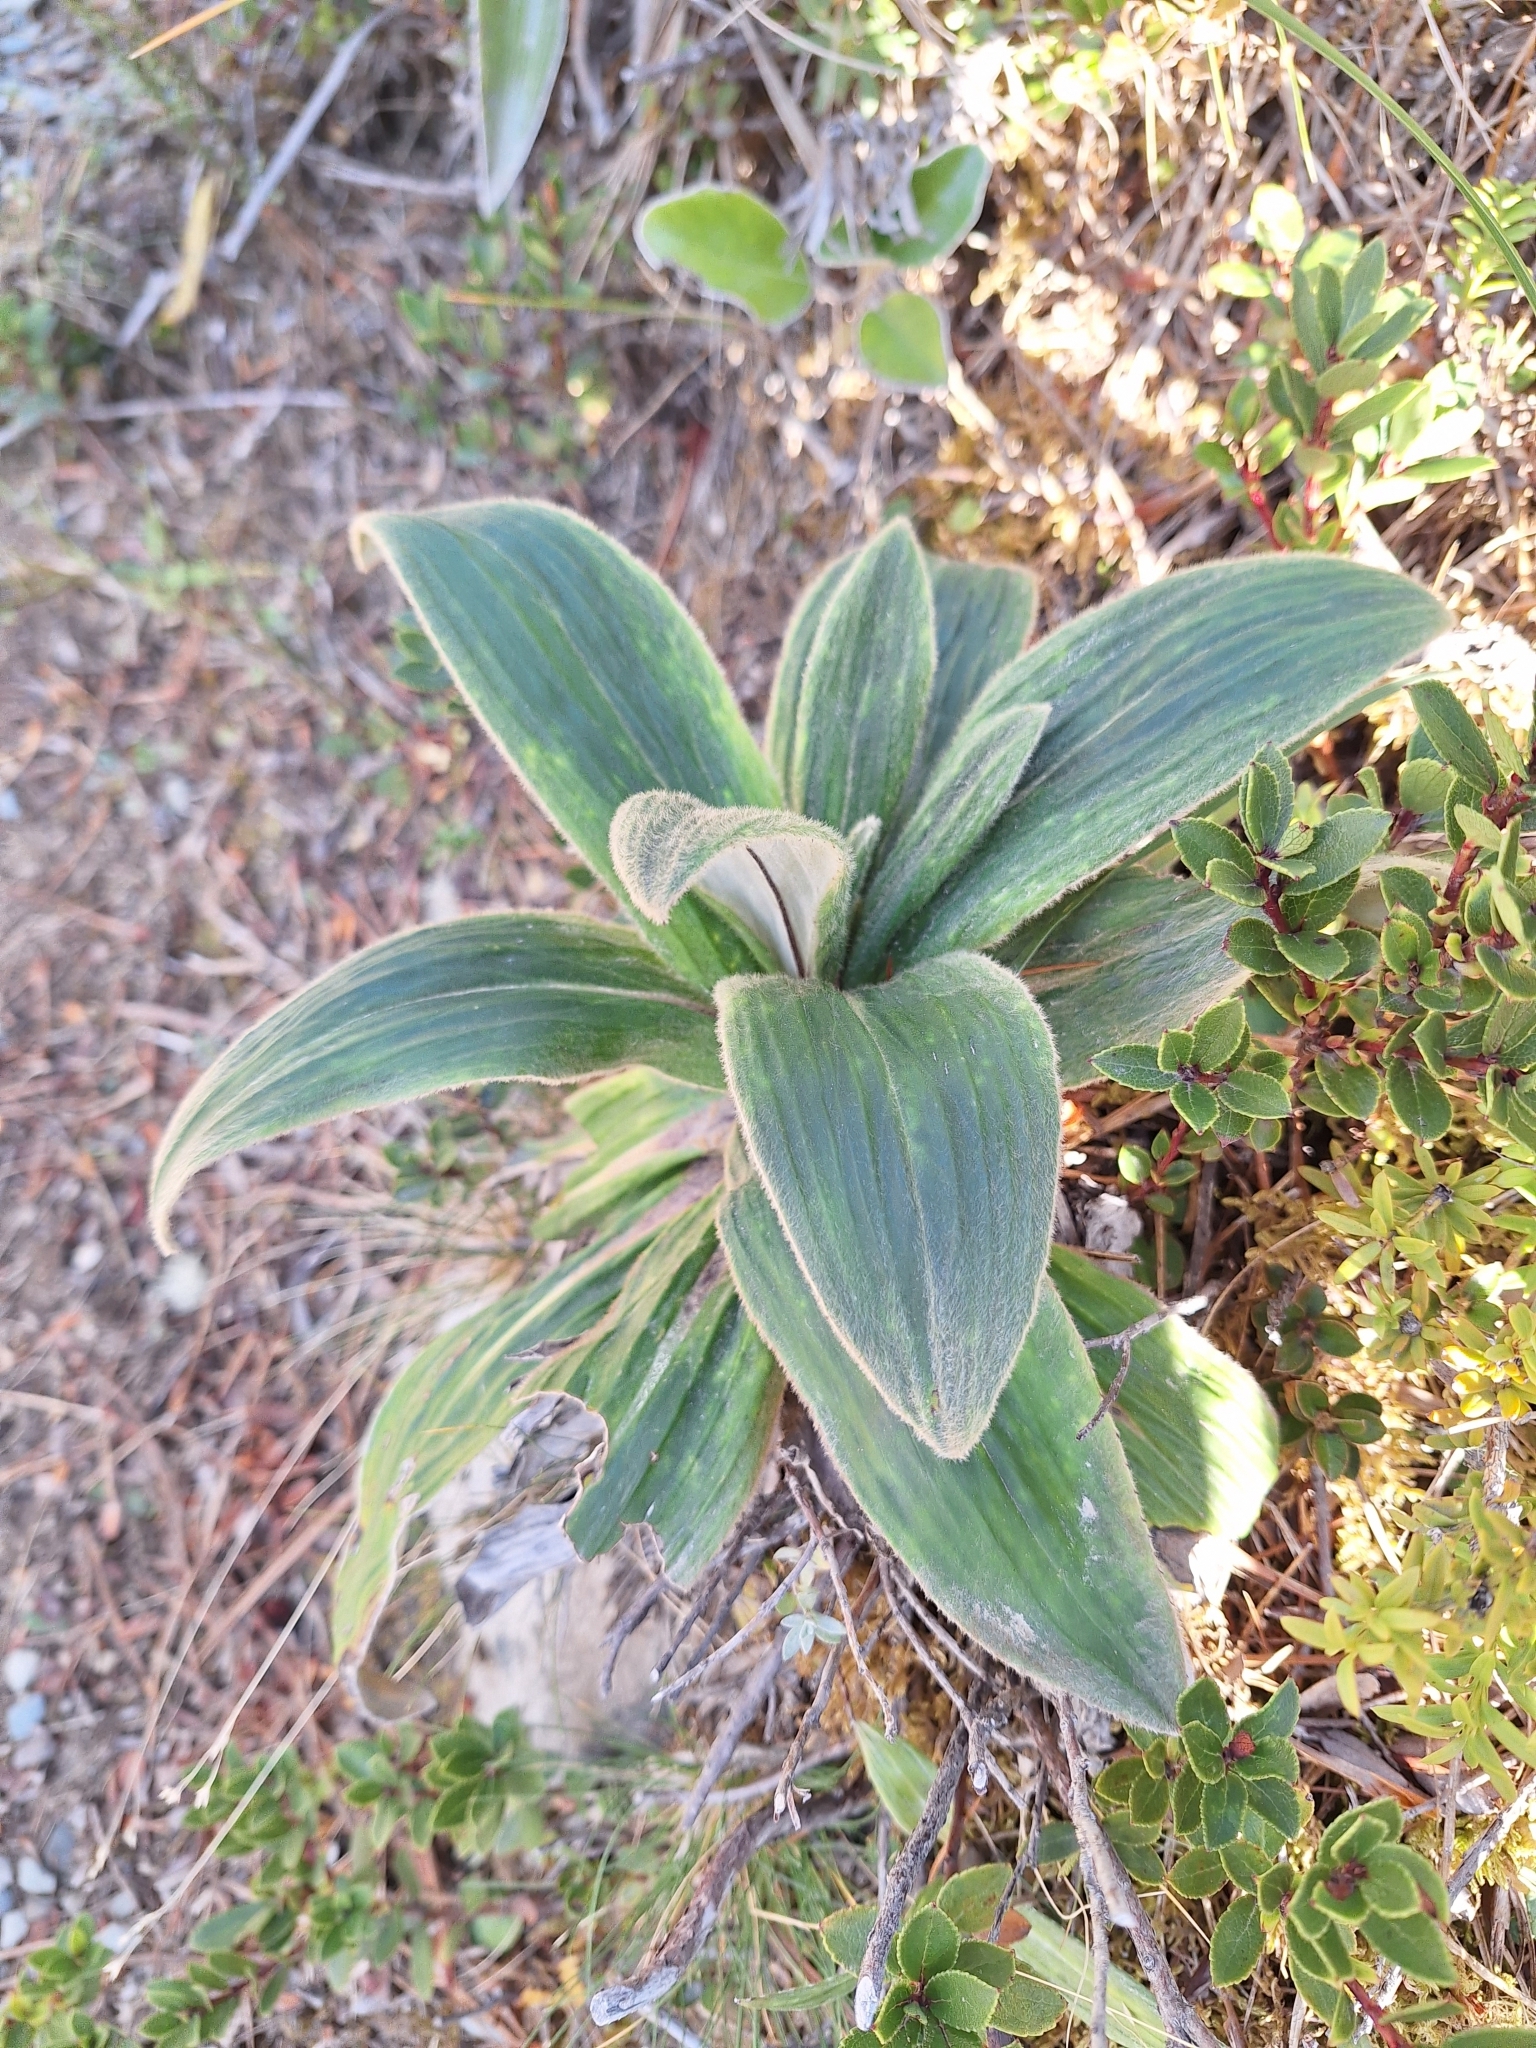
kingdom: Plantae
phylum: Tracheophyta
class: Magnoliopsida
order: Asterales
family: Asteraceae
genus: Celmisia
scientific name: Celmisia verbascifolia
